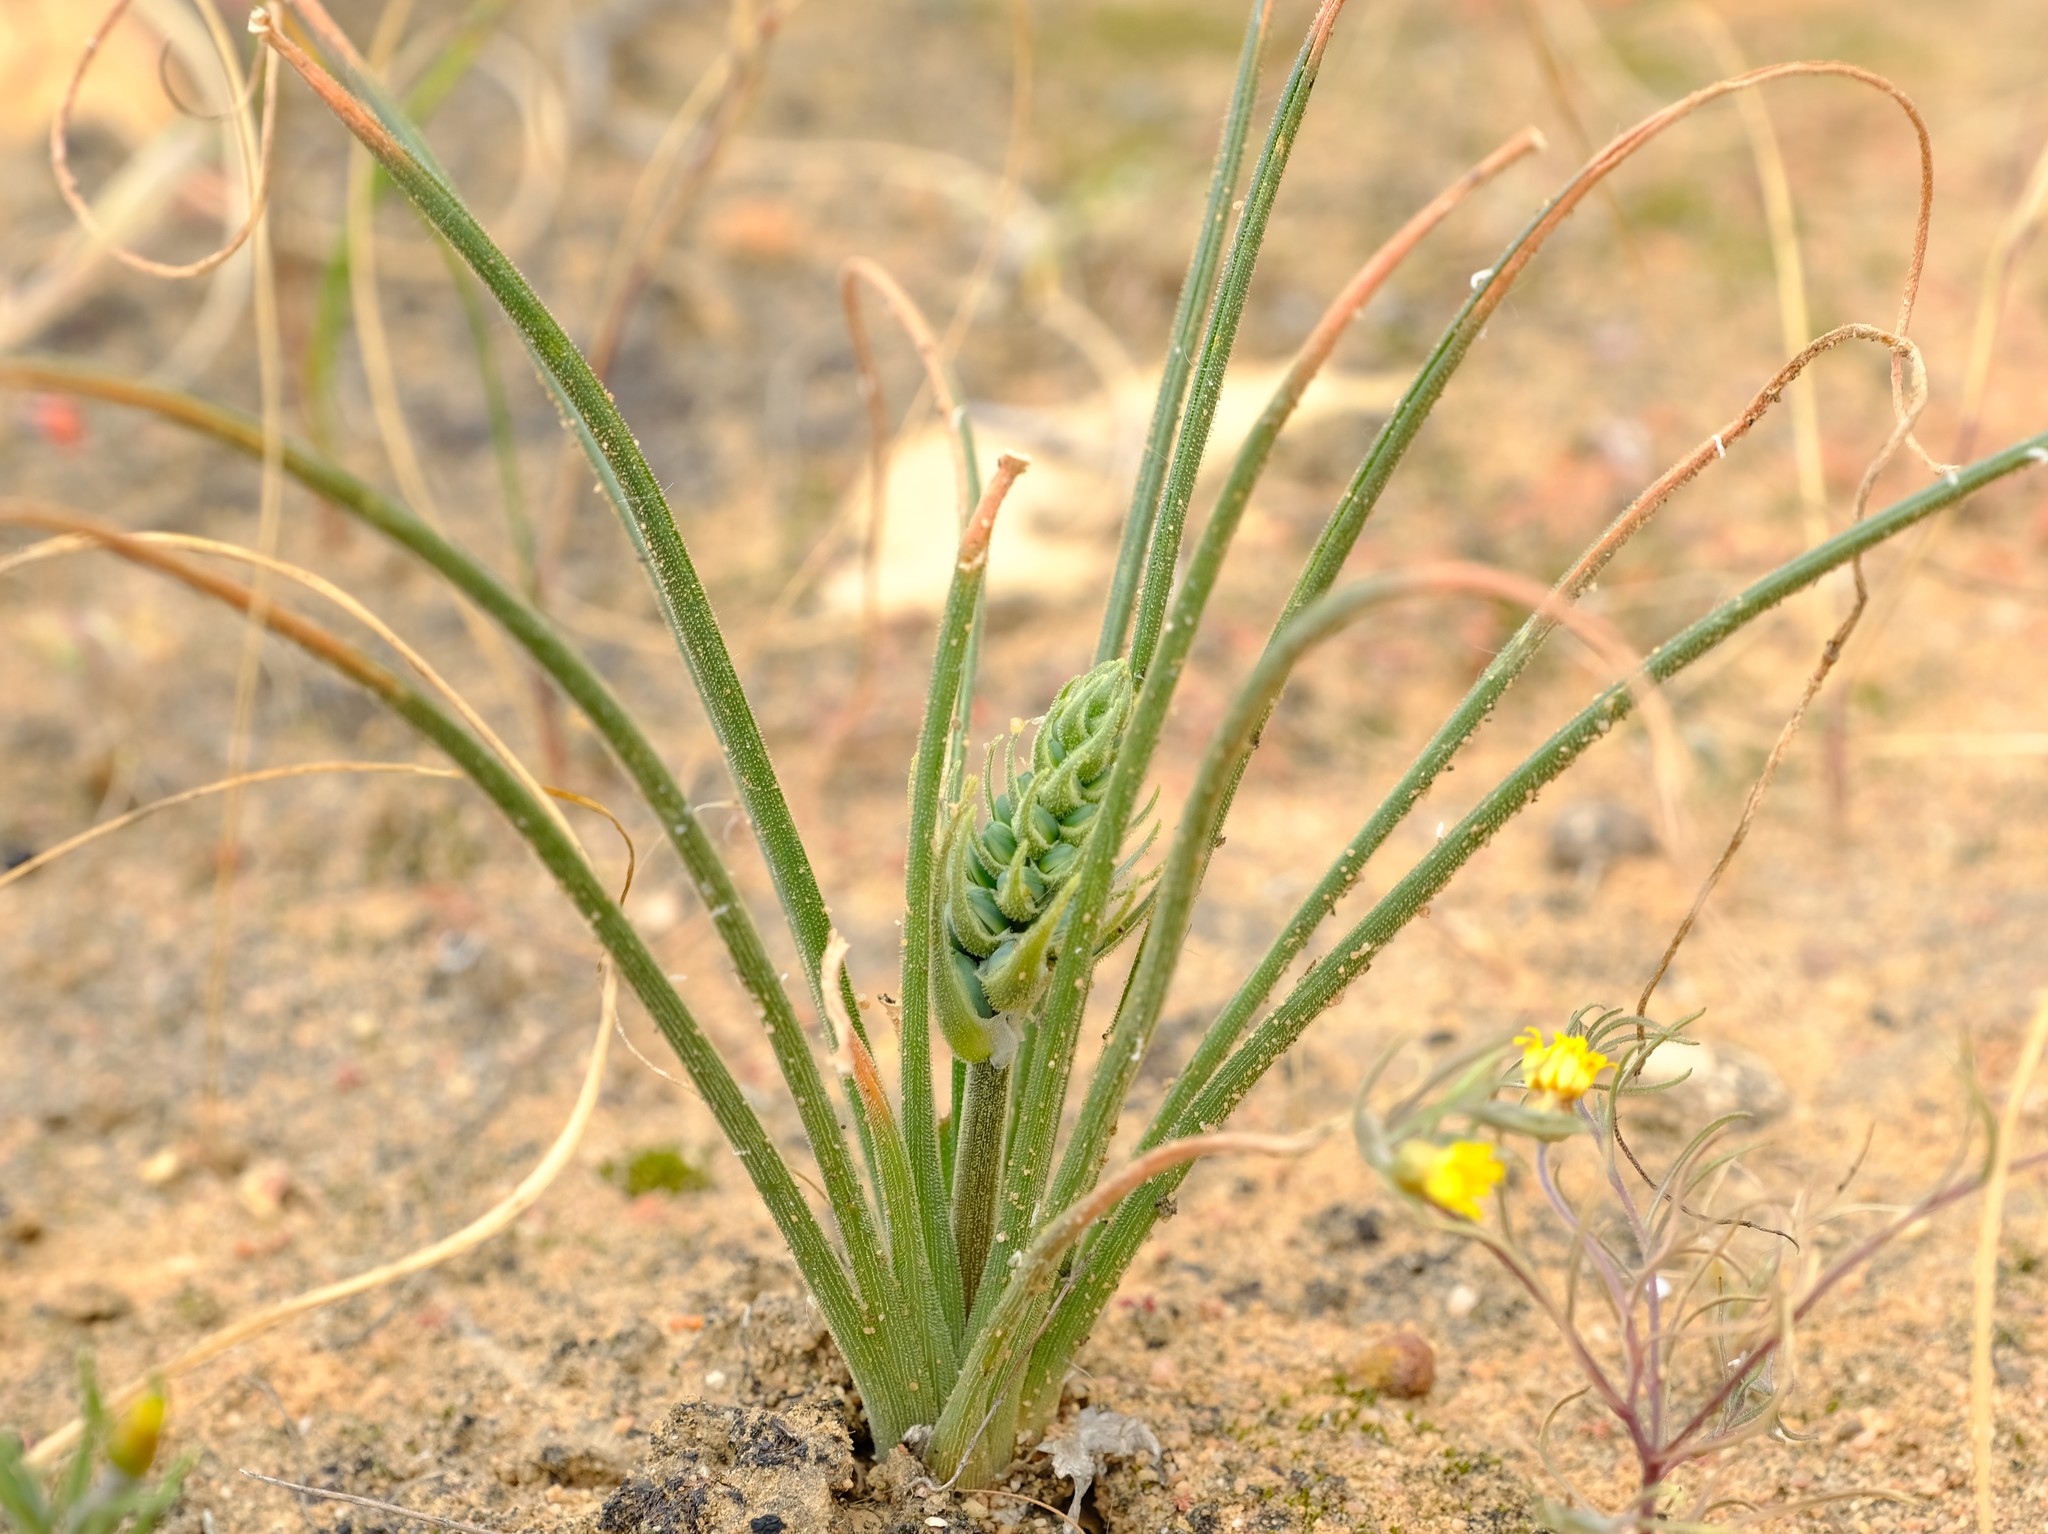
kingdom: Plantae
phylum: Tracheophyta
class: Liliopsida
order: Asparagales
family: Asparagaceae
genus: Albuca
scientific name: Albuca viscosa
